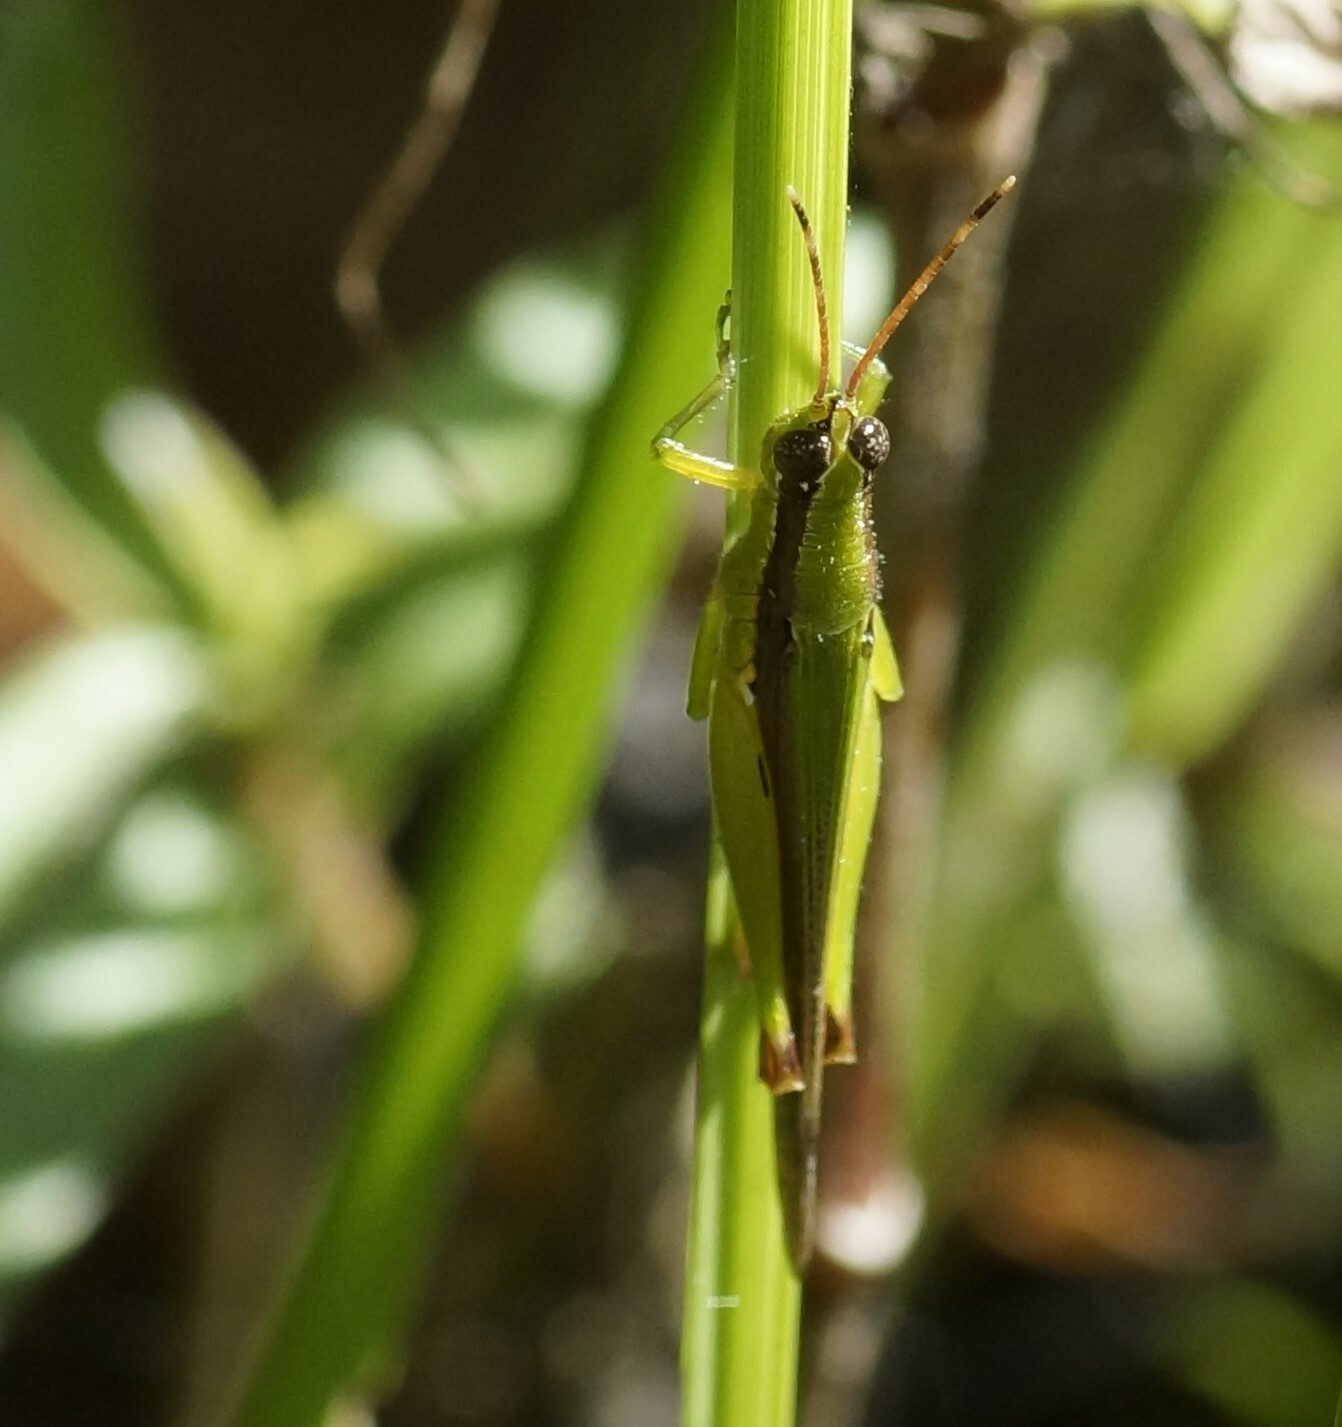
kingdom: Animalia
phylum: Arthropoda
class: Insecta
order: Orthoptera
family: Acrididae
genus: Gesonula
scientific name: Gesonula mundata
